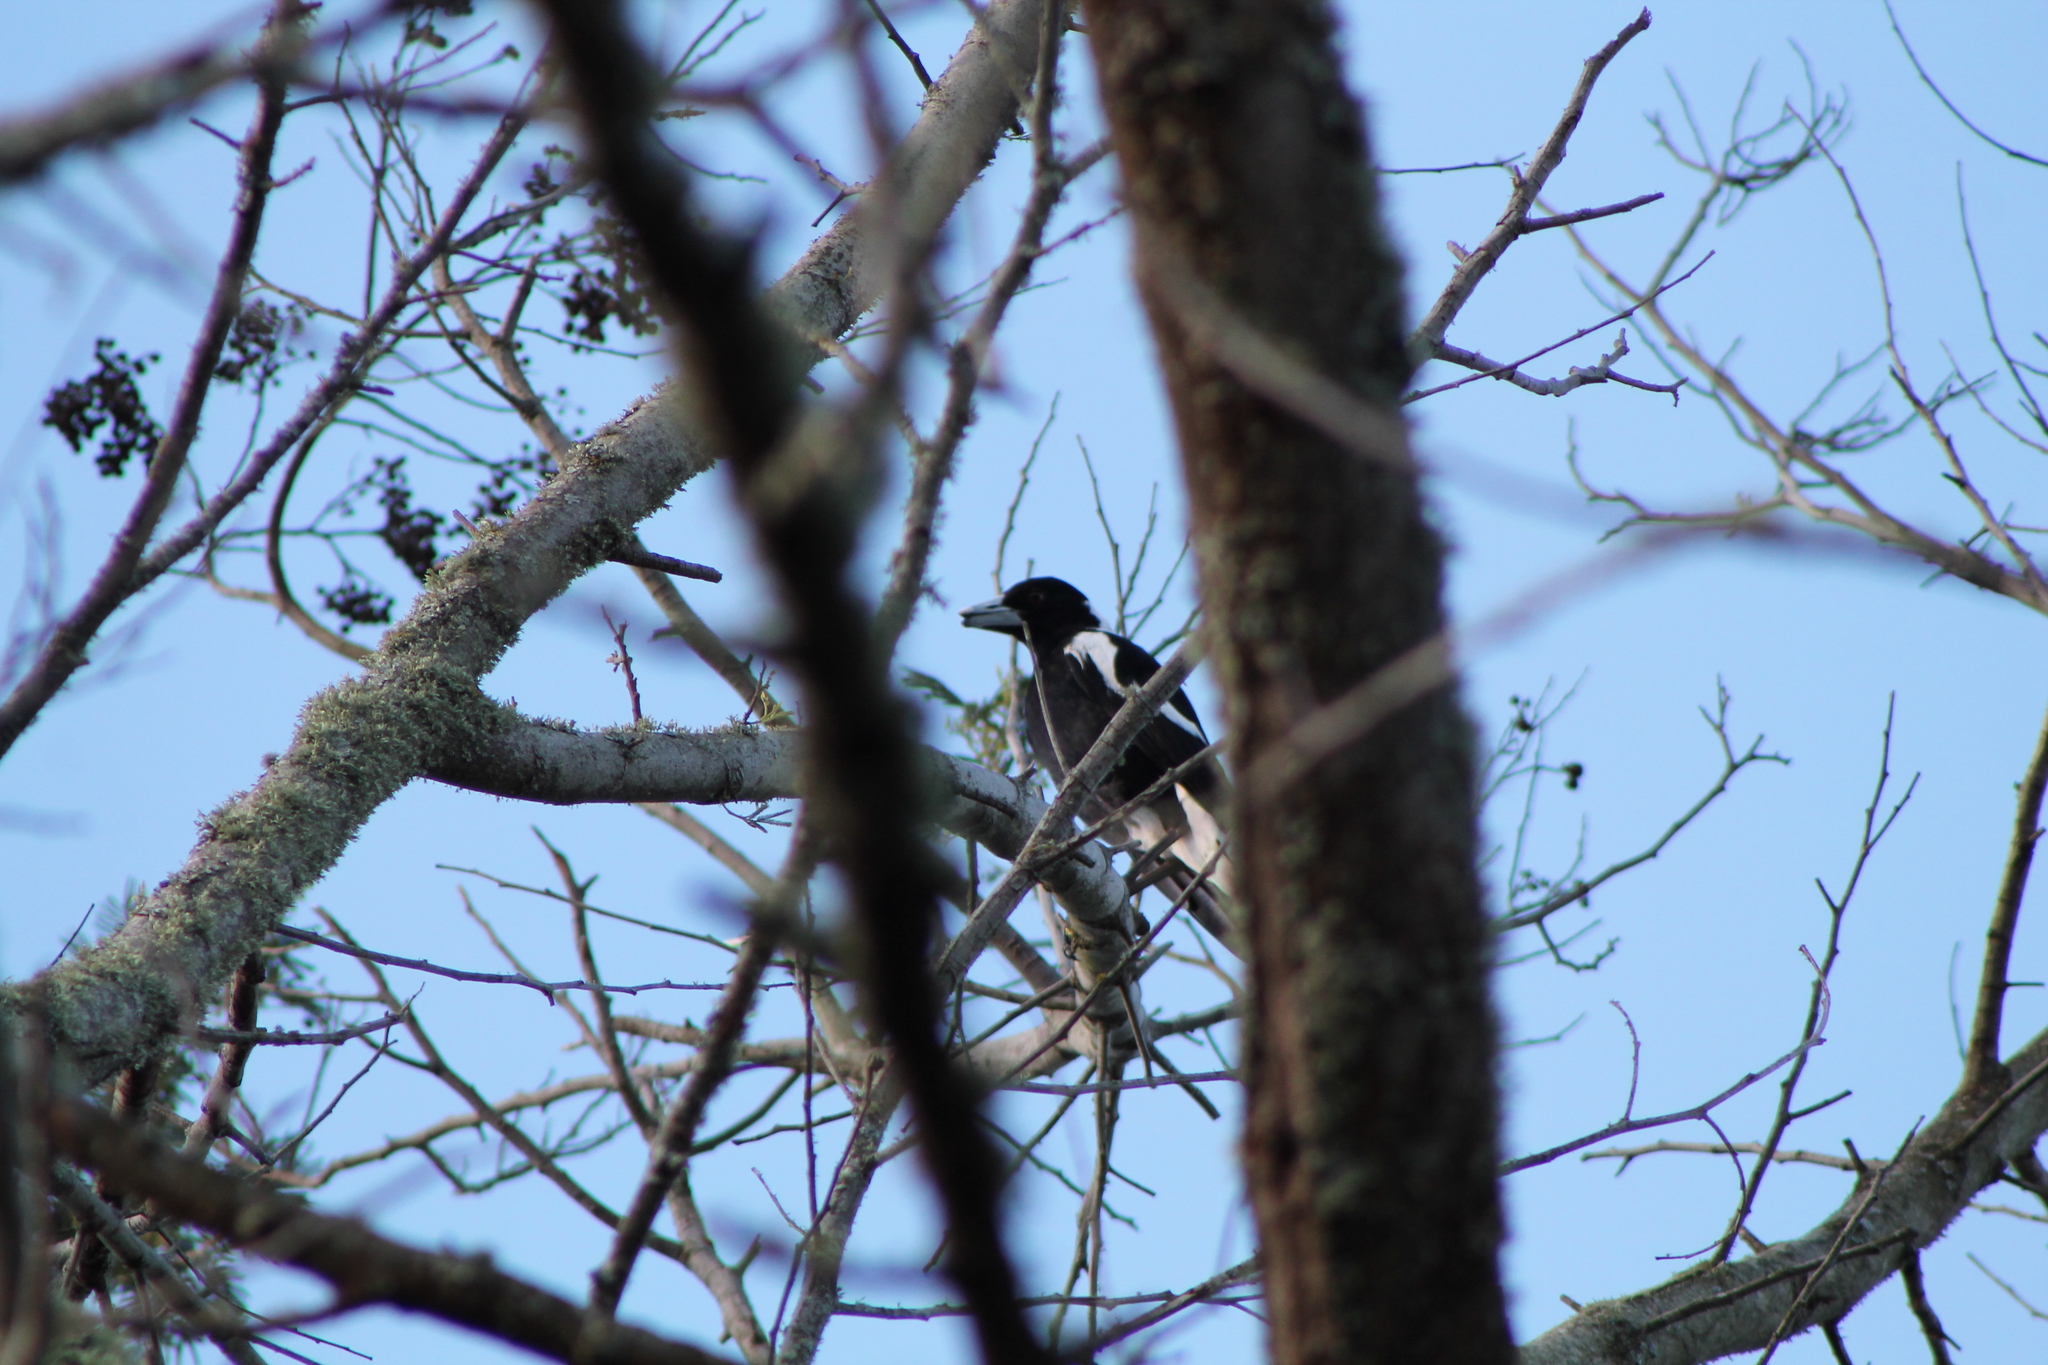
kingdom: Animalia
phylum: Chordata
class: Aves
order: Passeriformes
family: Cracticidae
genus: Gymnorhina
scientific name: Gymnorhina tibicen
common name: Australian magpie
